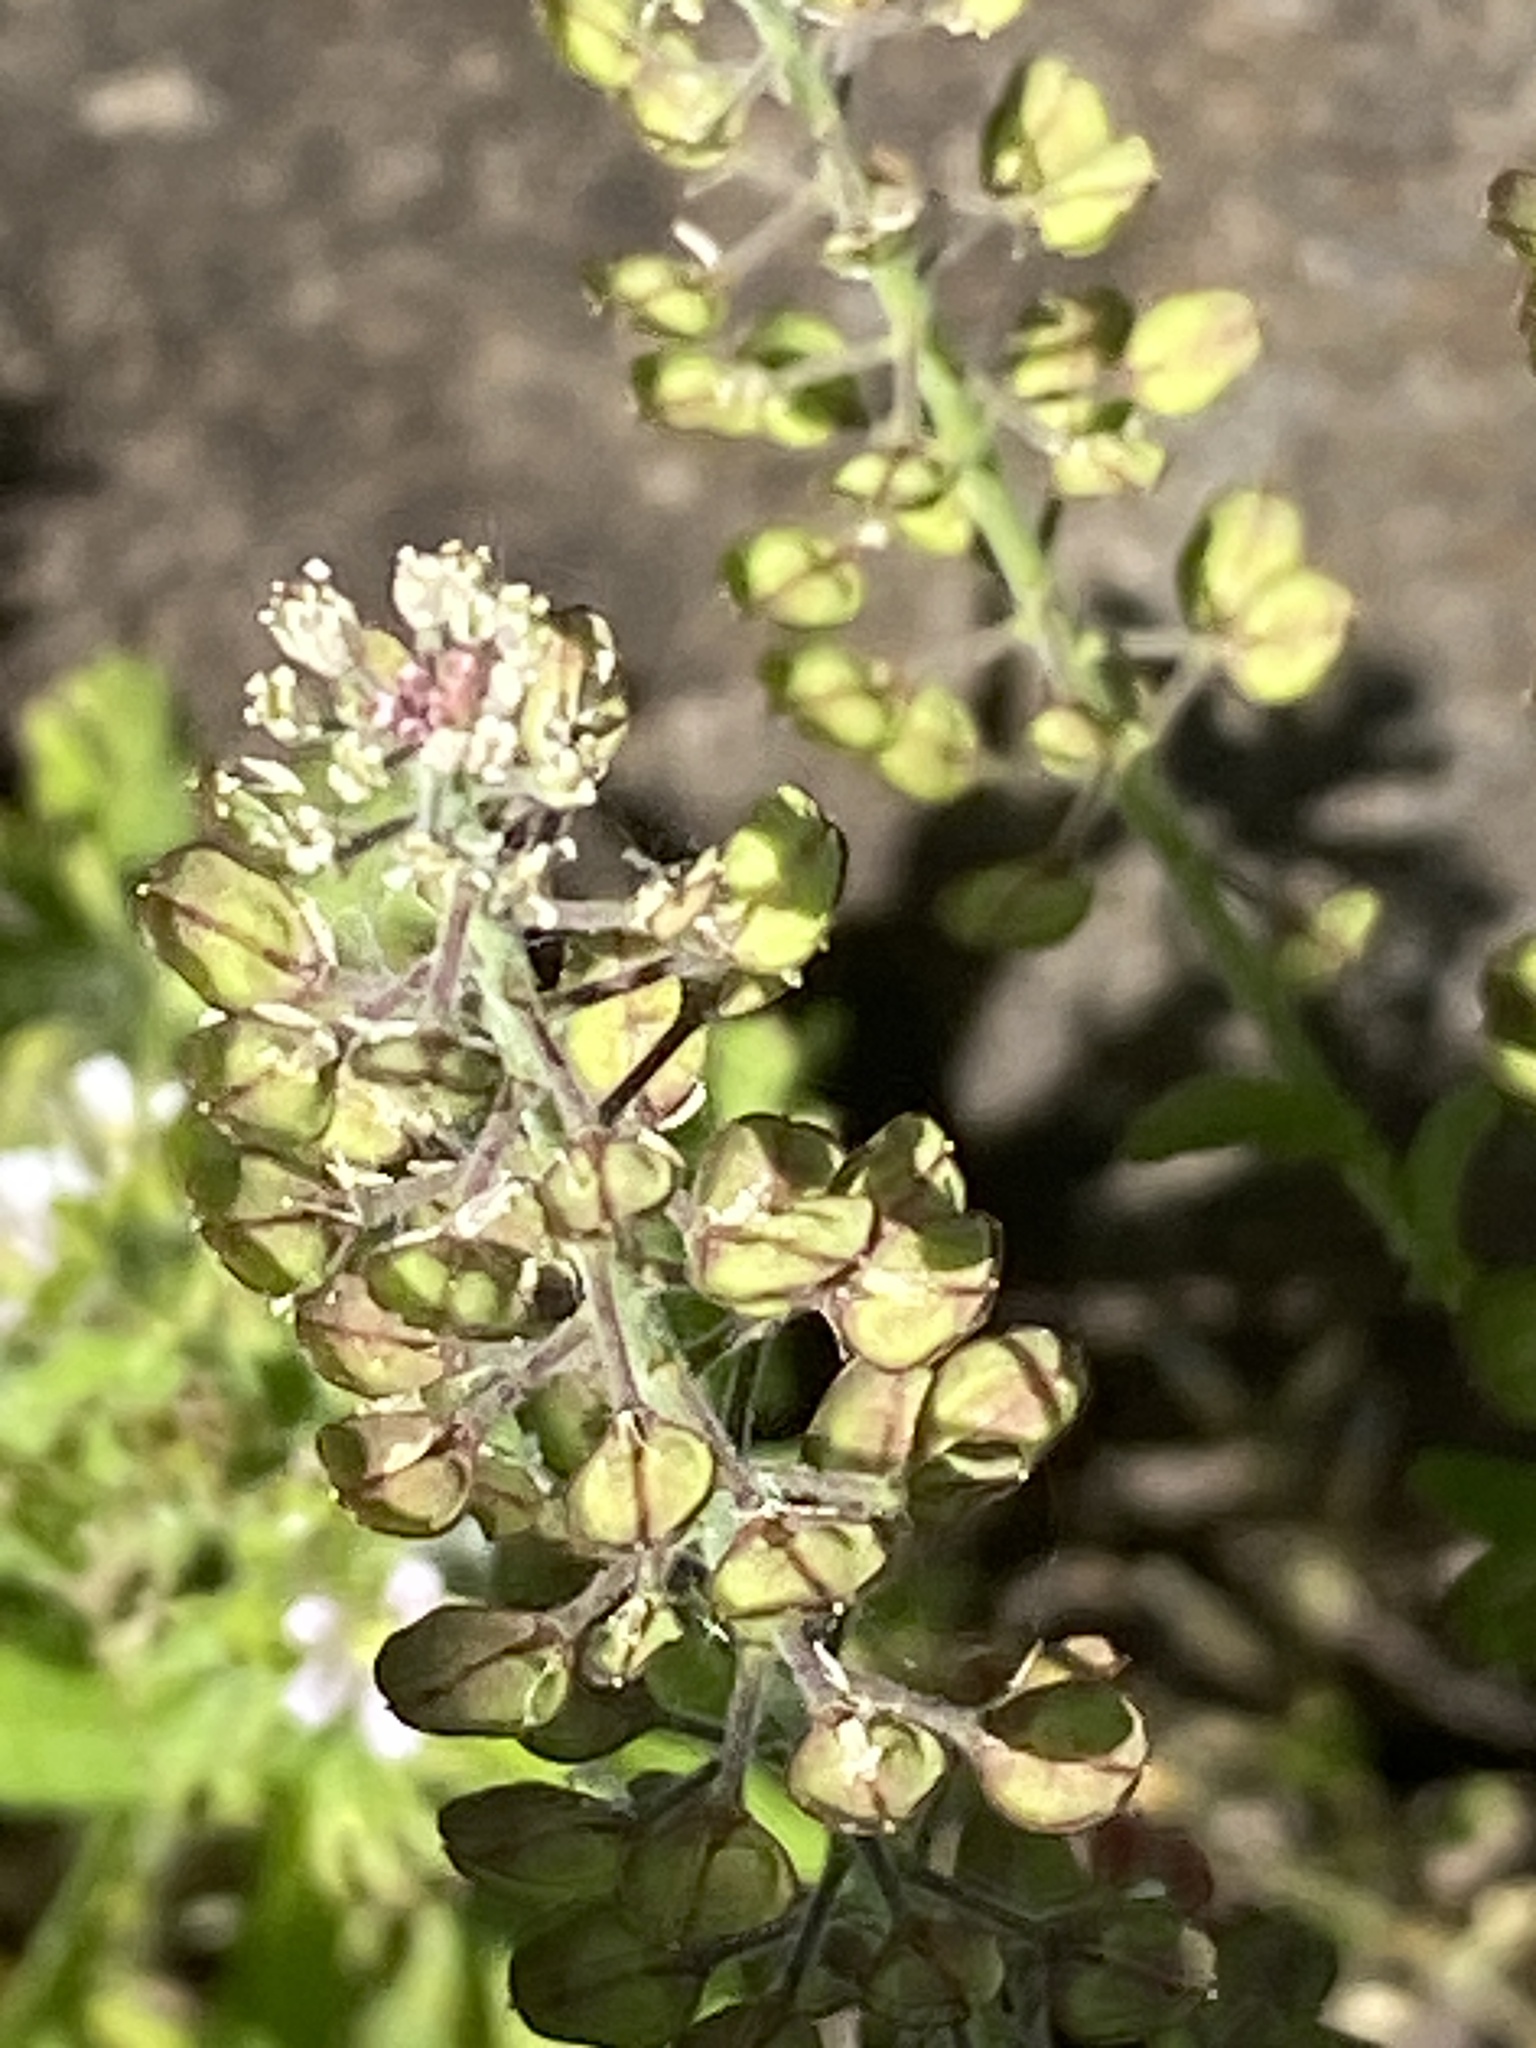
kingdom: Plantae
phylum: Tracheophyta
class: Magnoliopsida
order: Brassicales
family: Brassicaceae
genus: Lepidium
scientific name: Lepidium campestre
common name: Field pepperwort
